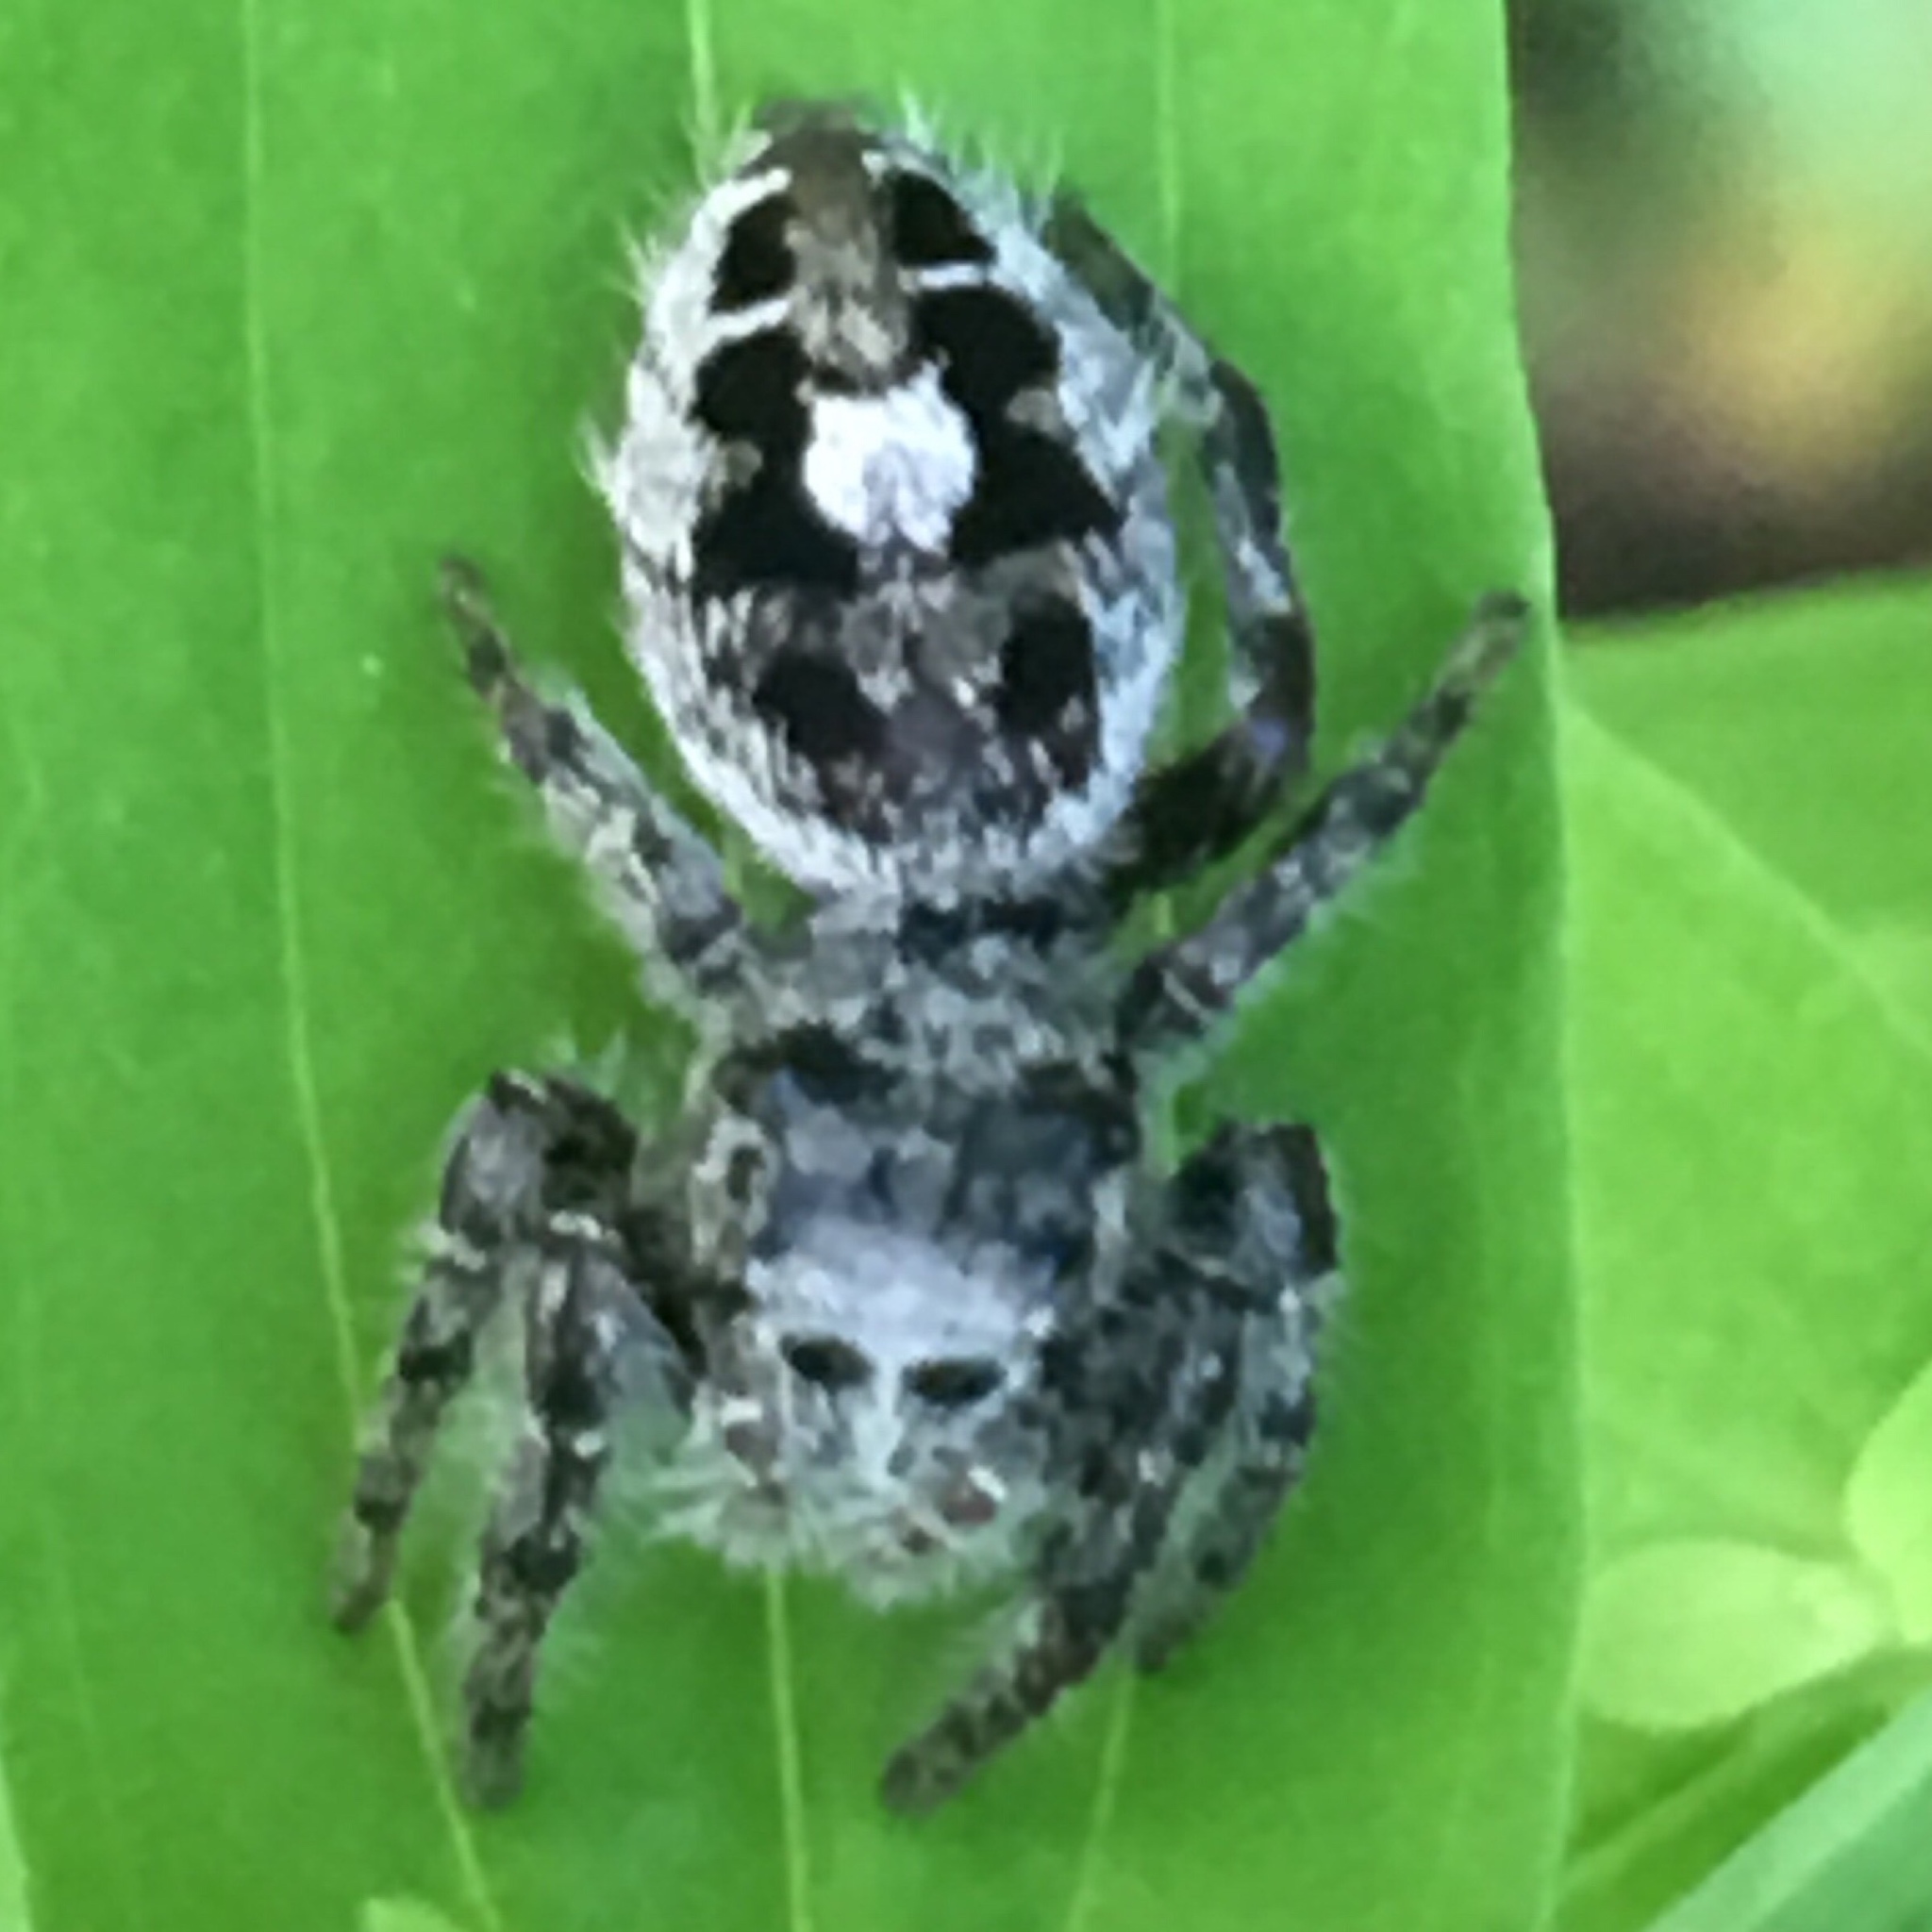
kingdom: Animalia
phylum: Arthropoda
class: Arachnida
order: Araneae
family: Salticidae
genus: Phidippus
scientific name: Phidippus putnami
